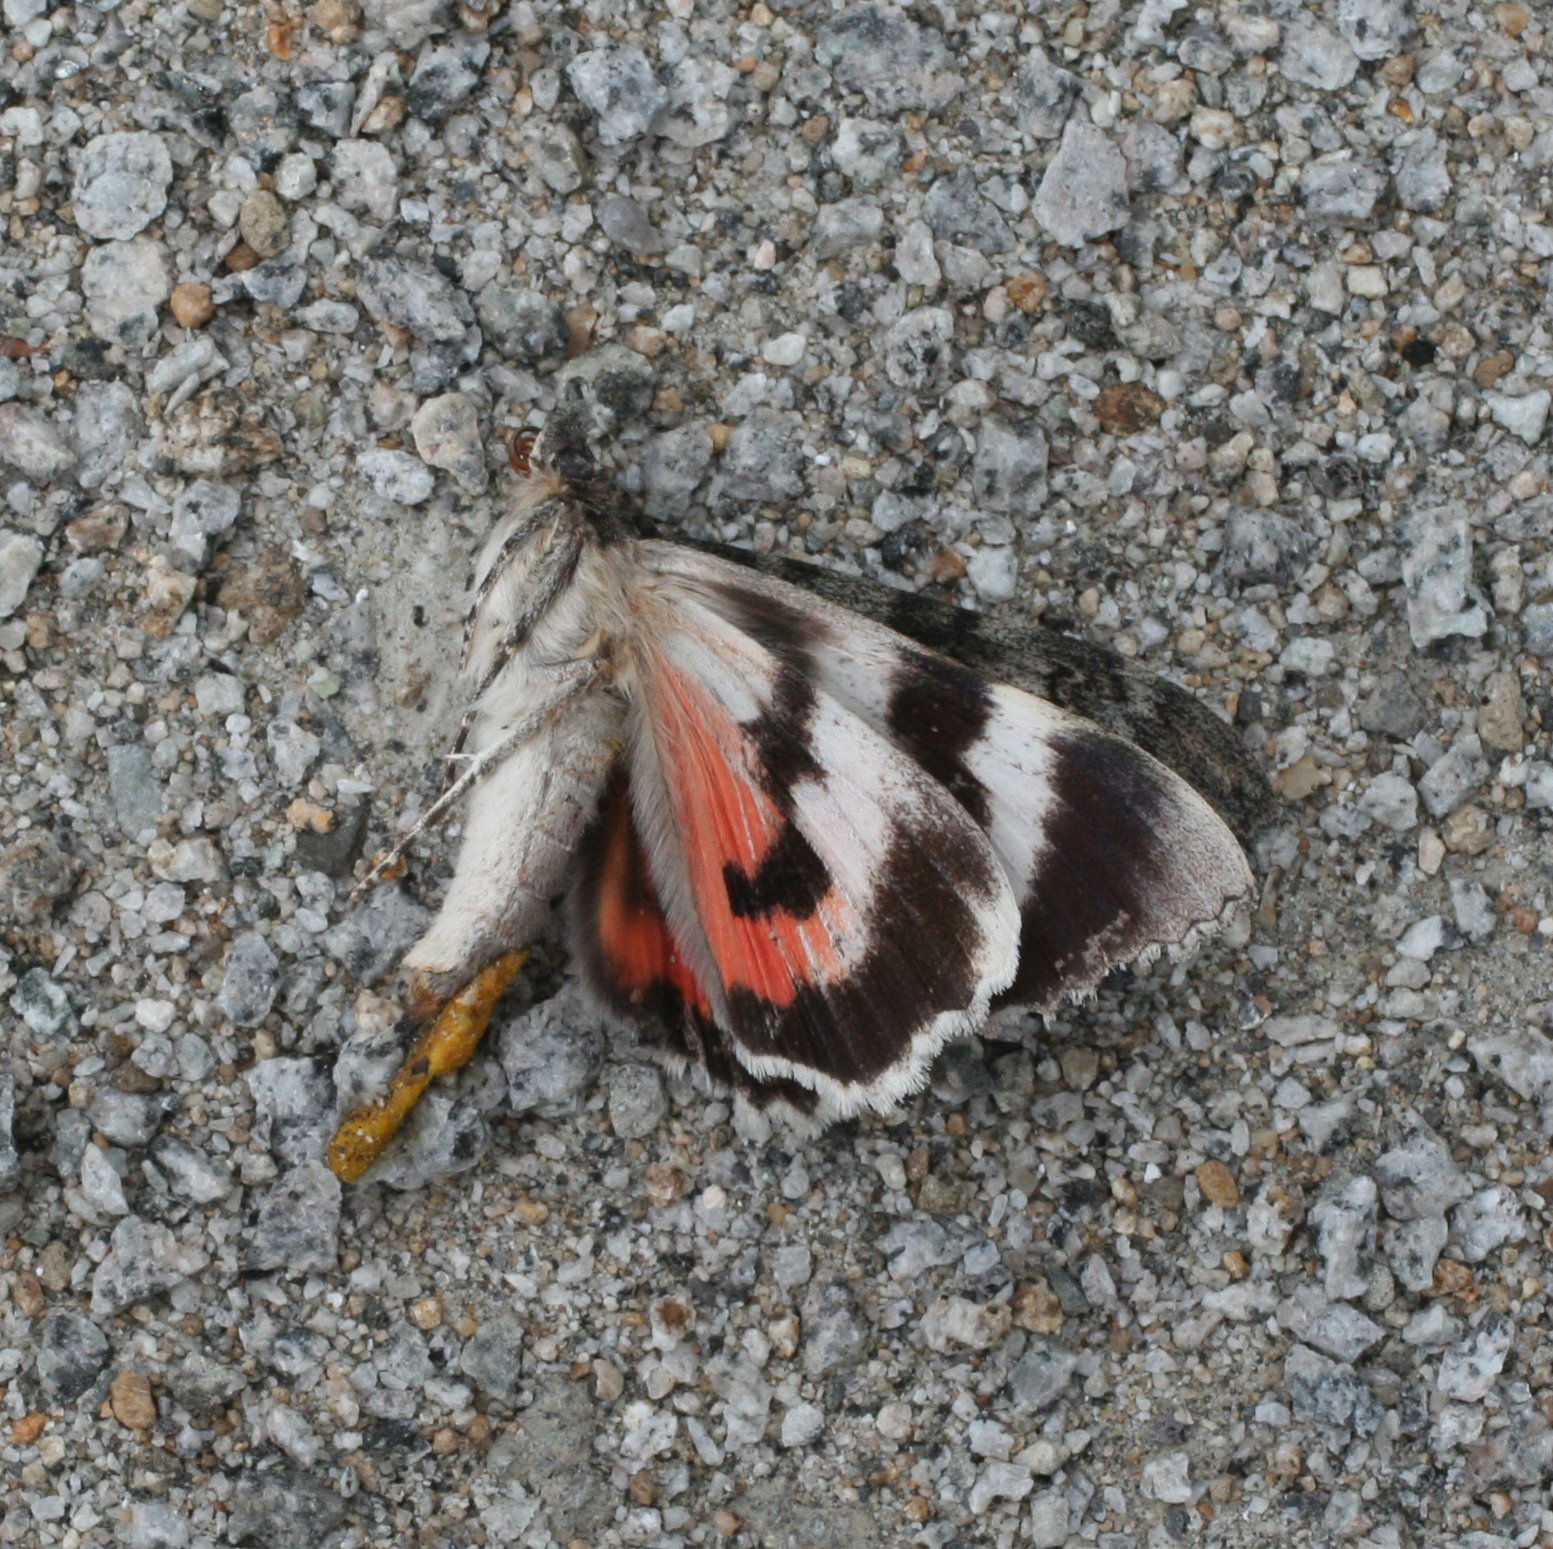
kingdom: Animalia
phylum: Arthropoda
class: Insecta
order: Lepidoptera
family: Erebidae
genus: Catocala
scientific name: Catocala nupta
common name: Red underwing
